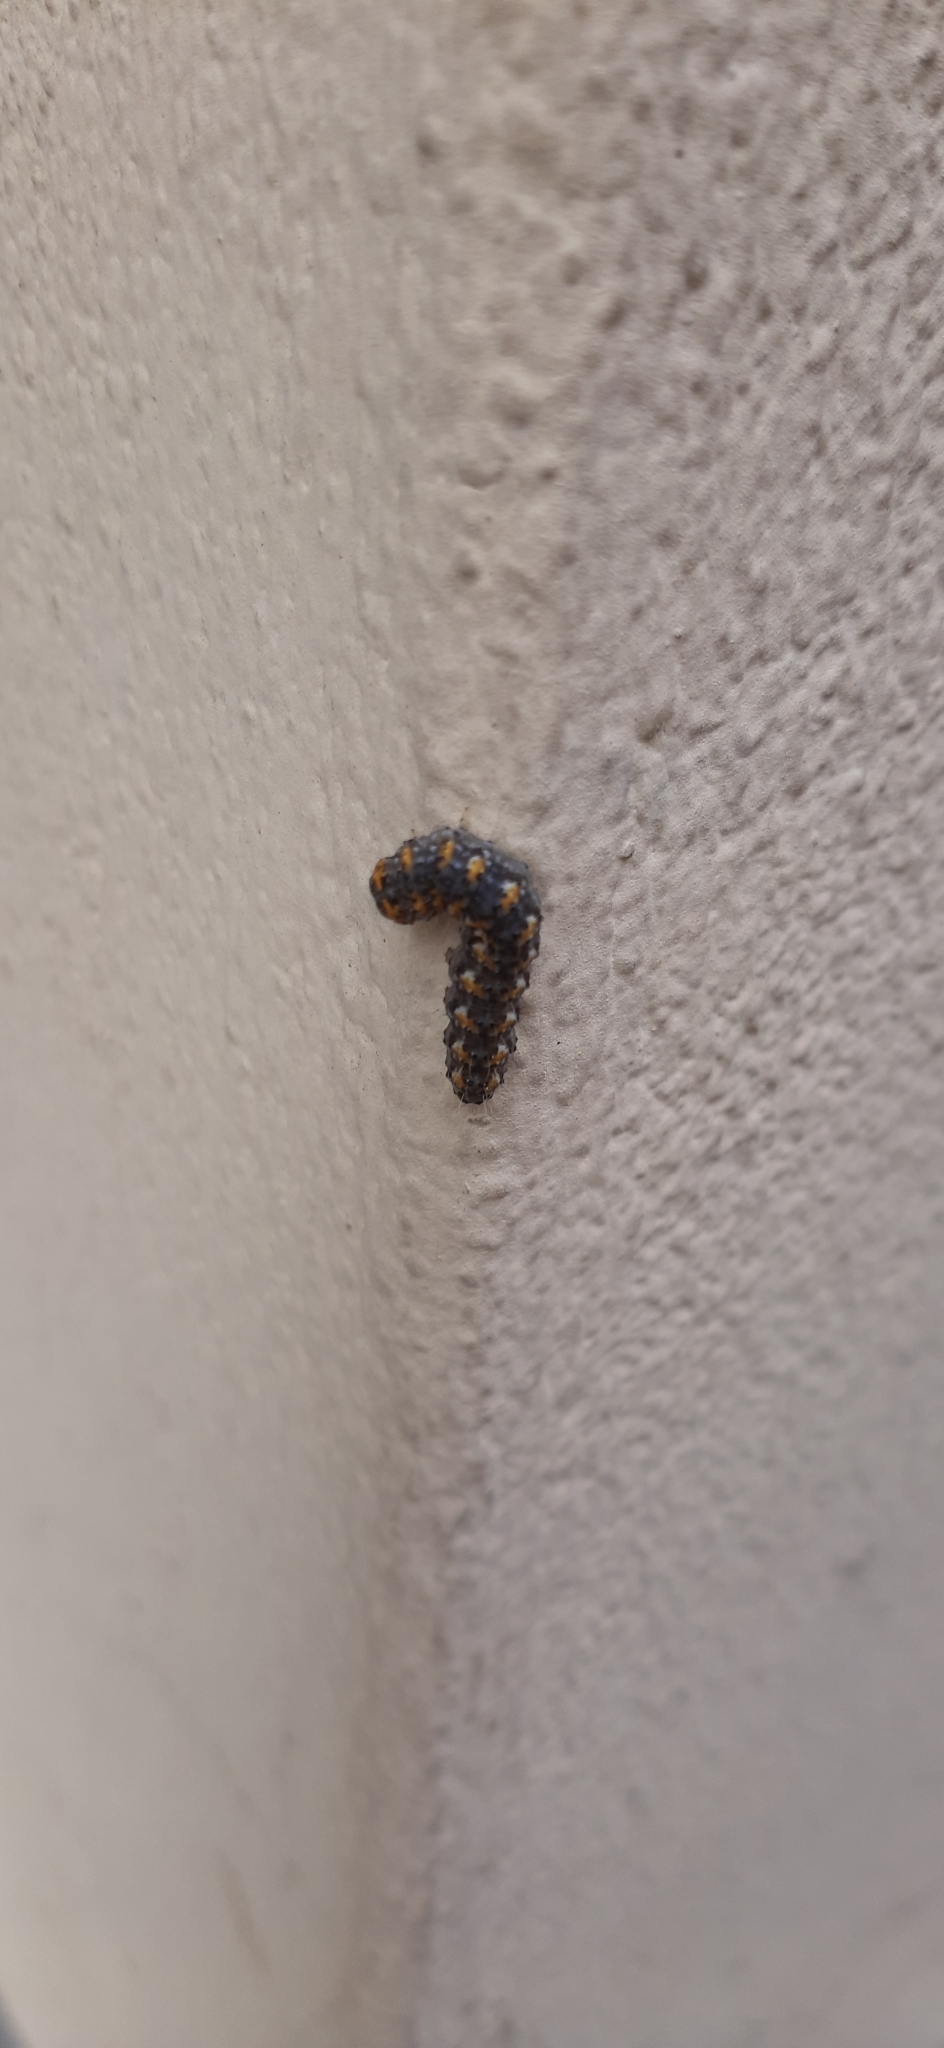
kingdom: Animalia
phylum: Arthropoda
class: Insecta
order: Lepidoptera
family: Noctuidae
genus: Bryophilina
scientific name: Bryophilina
